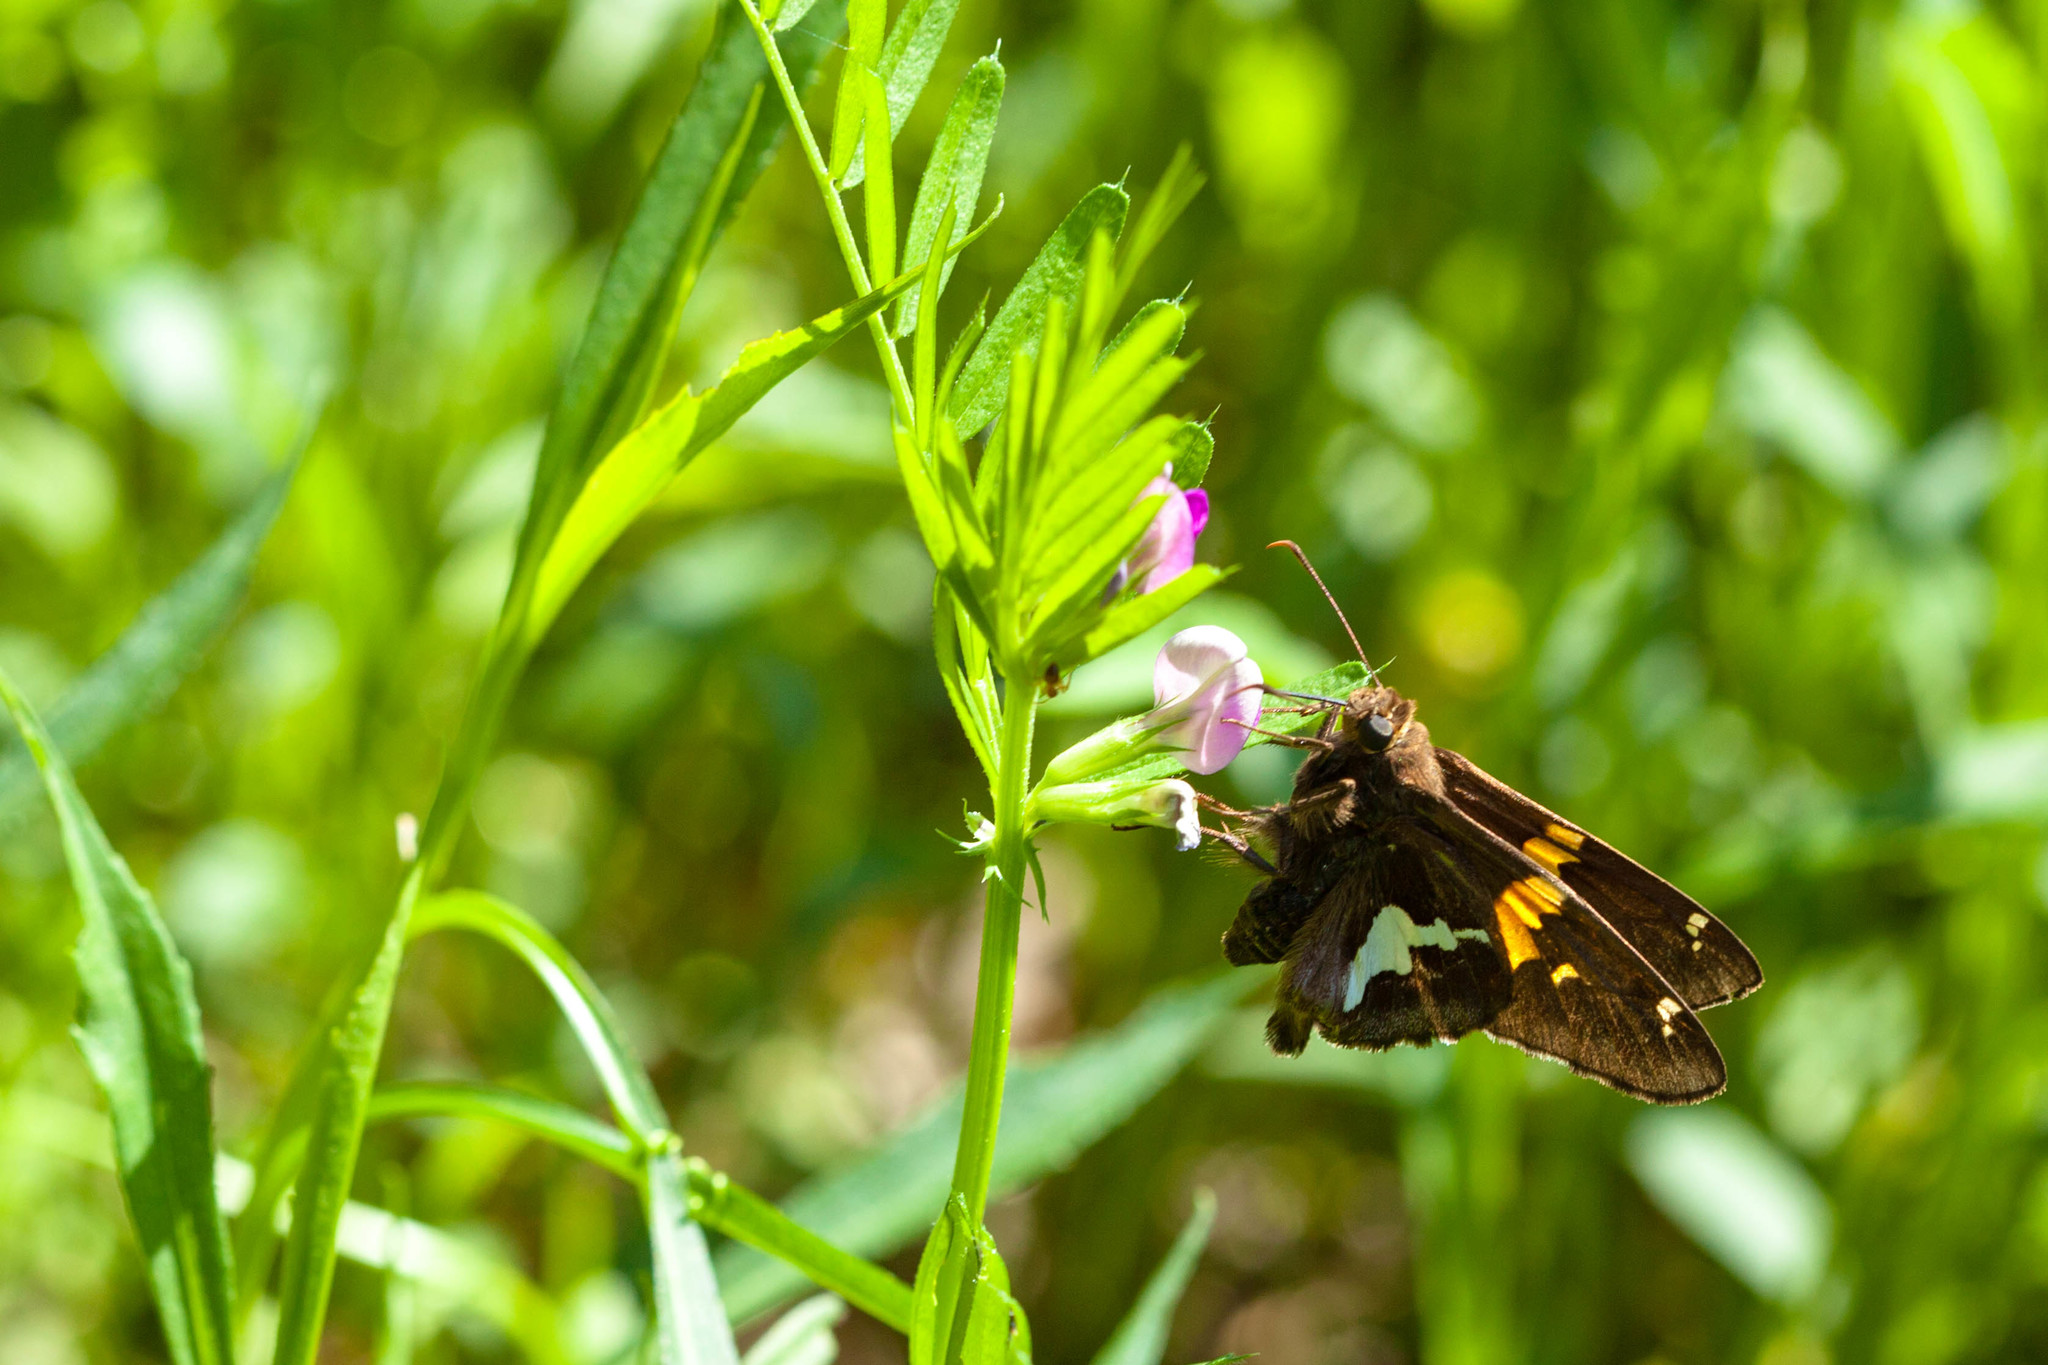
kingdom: Animalia
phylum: Arthropoda
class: Insecta
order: Lepidoptera
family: Hesperiidae
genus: Epargyreus
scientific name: Epargyreus clarus
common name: Silver-spotted skipper
